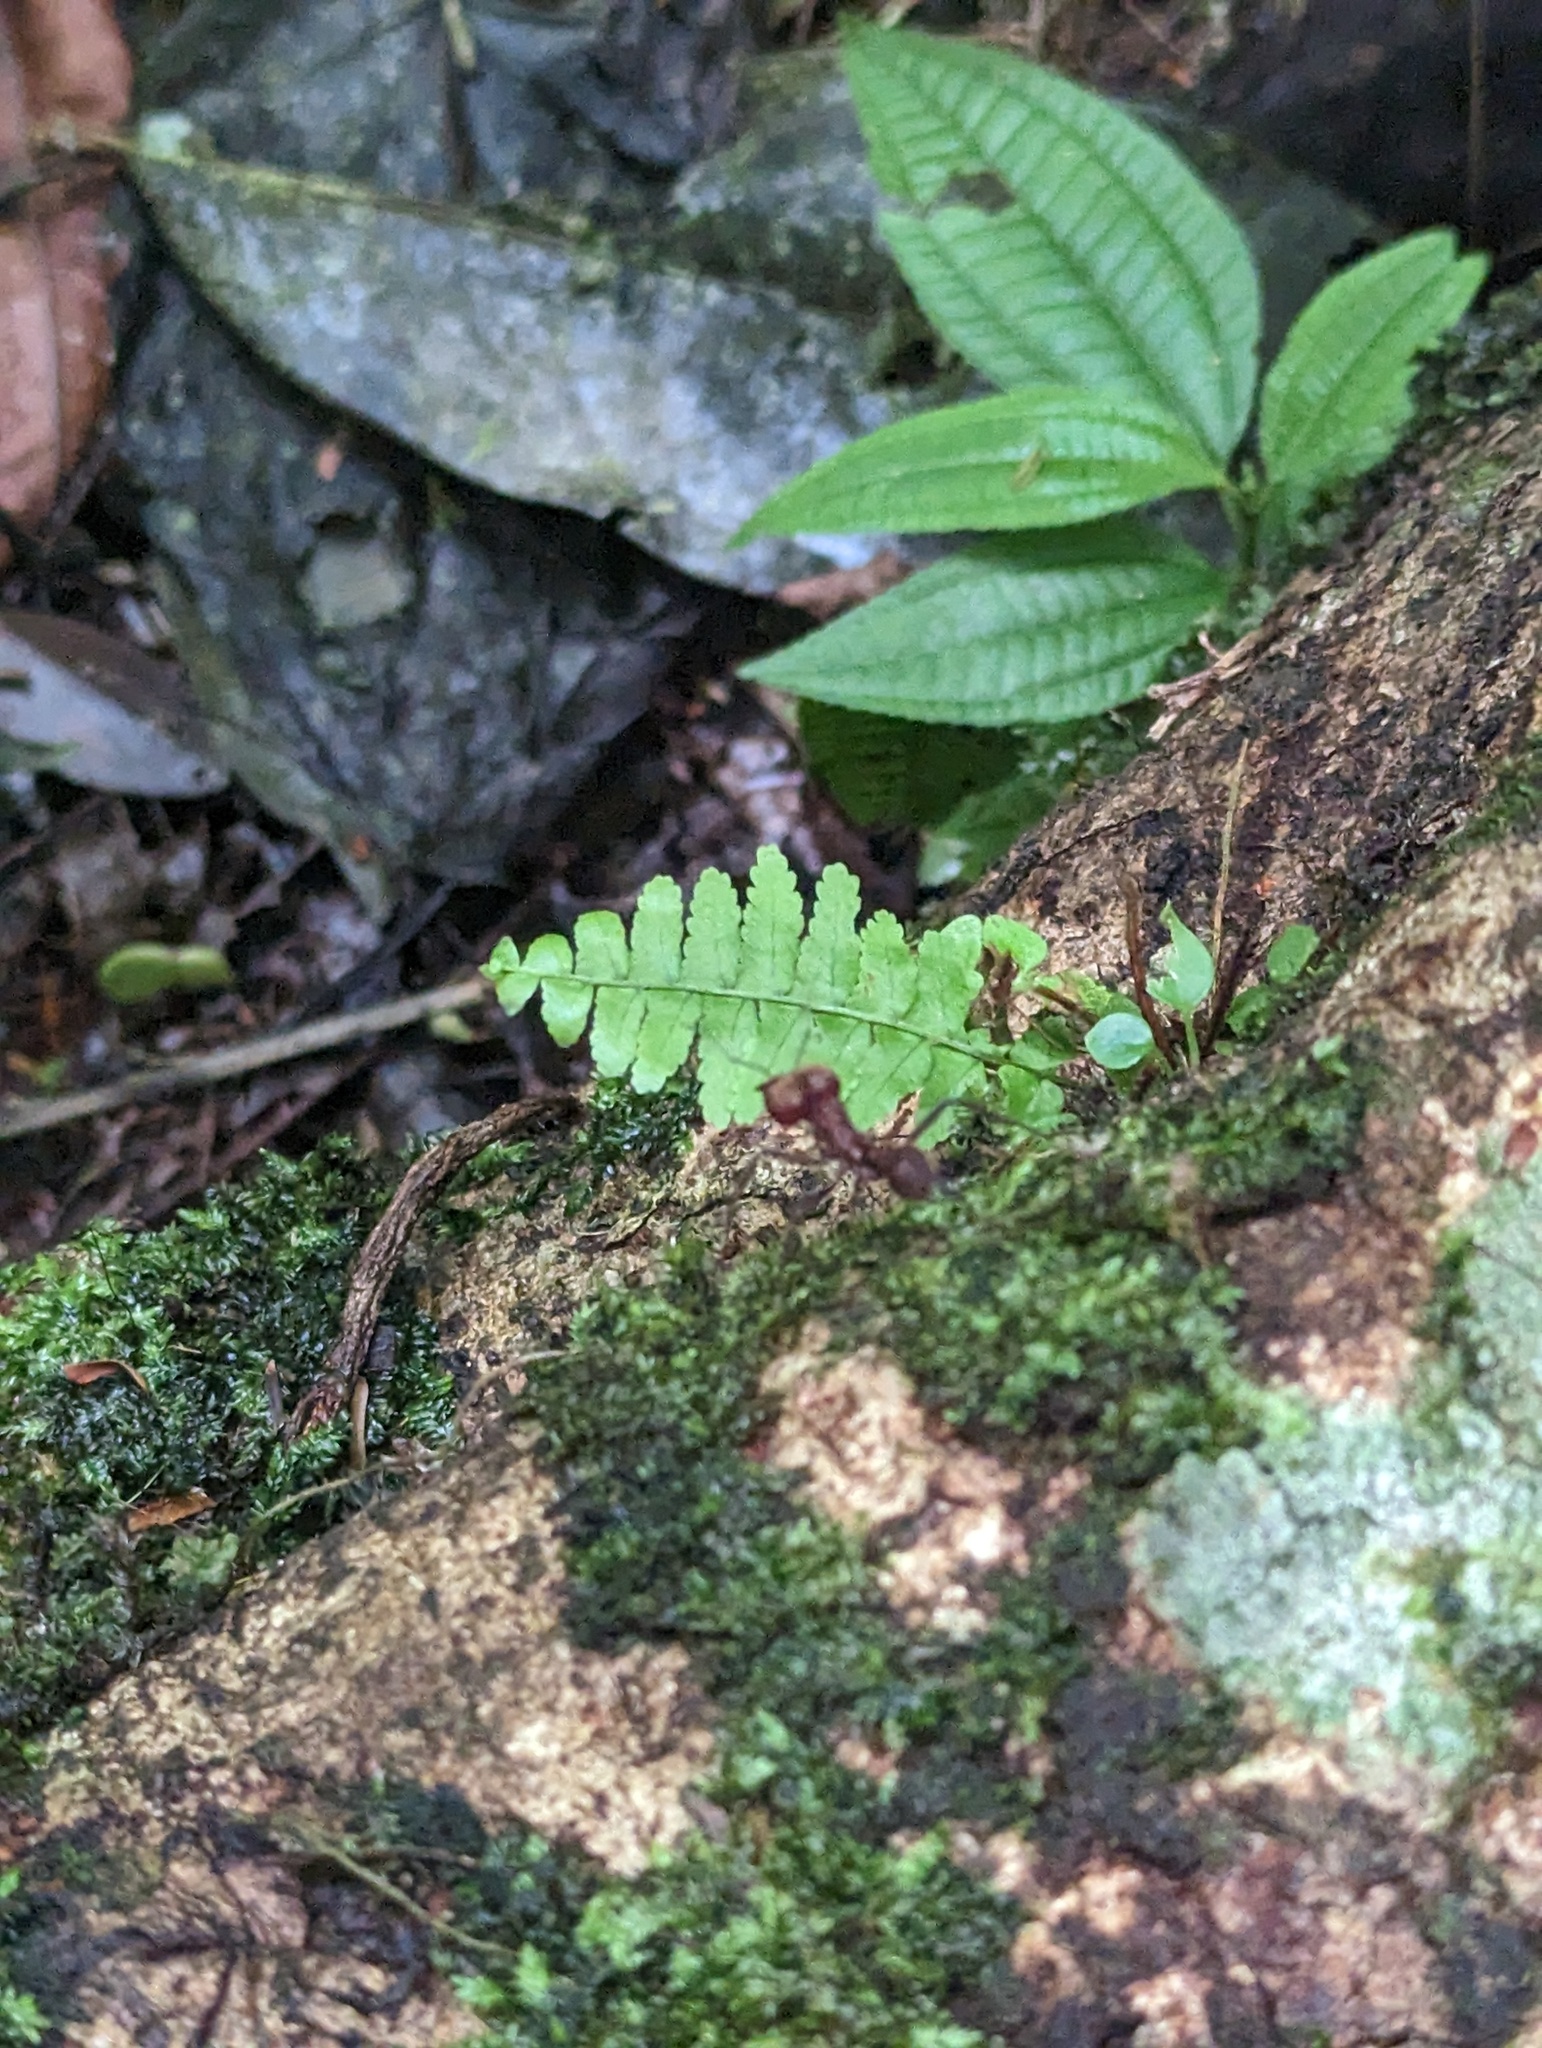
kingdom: Animalia
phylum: Arthropoda
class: Insecta
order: Hymenoptera
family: Formicidae
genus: Atta
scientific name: Atta cephalotes
